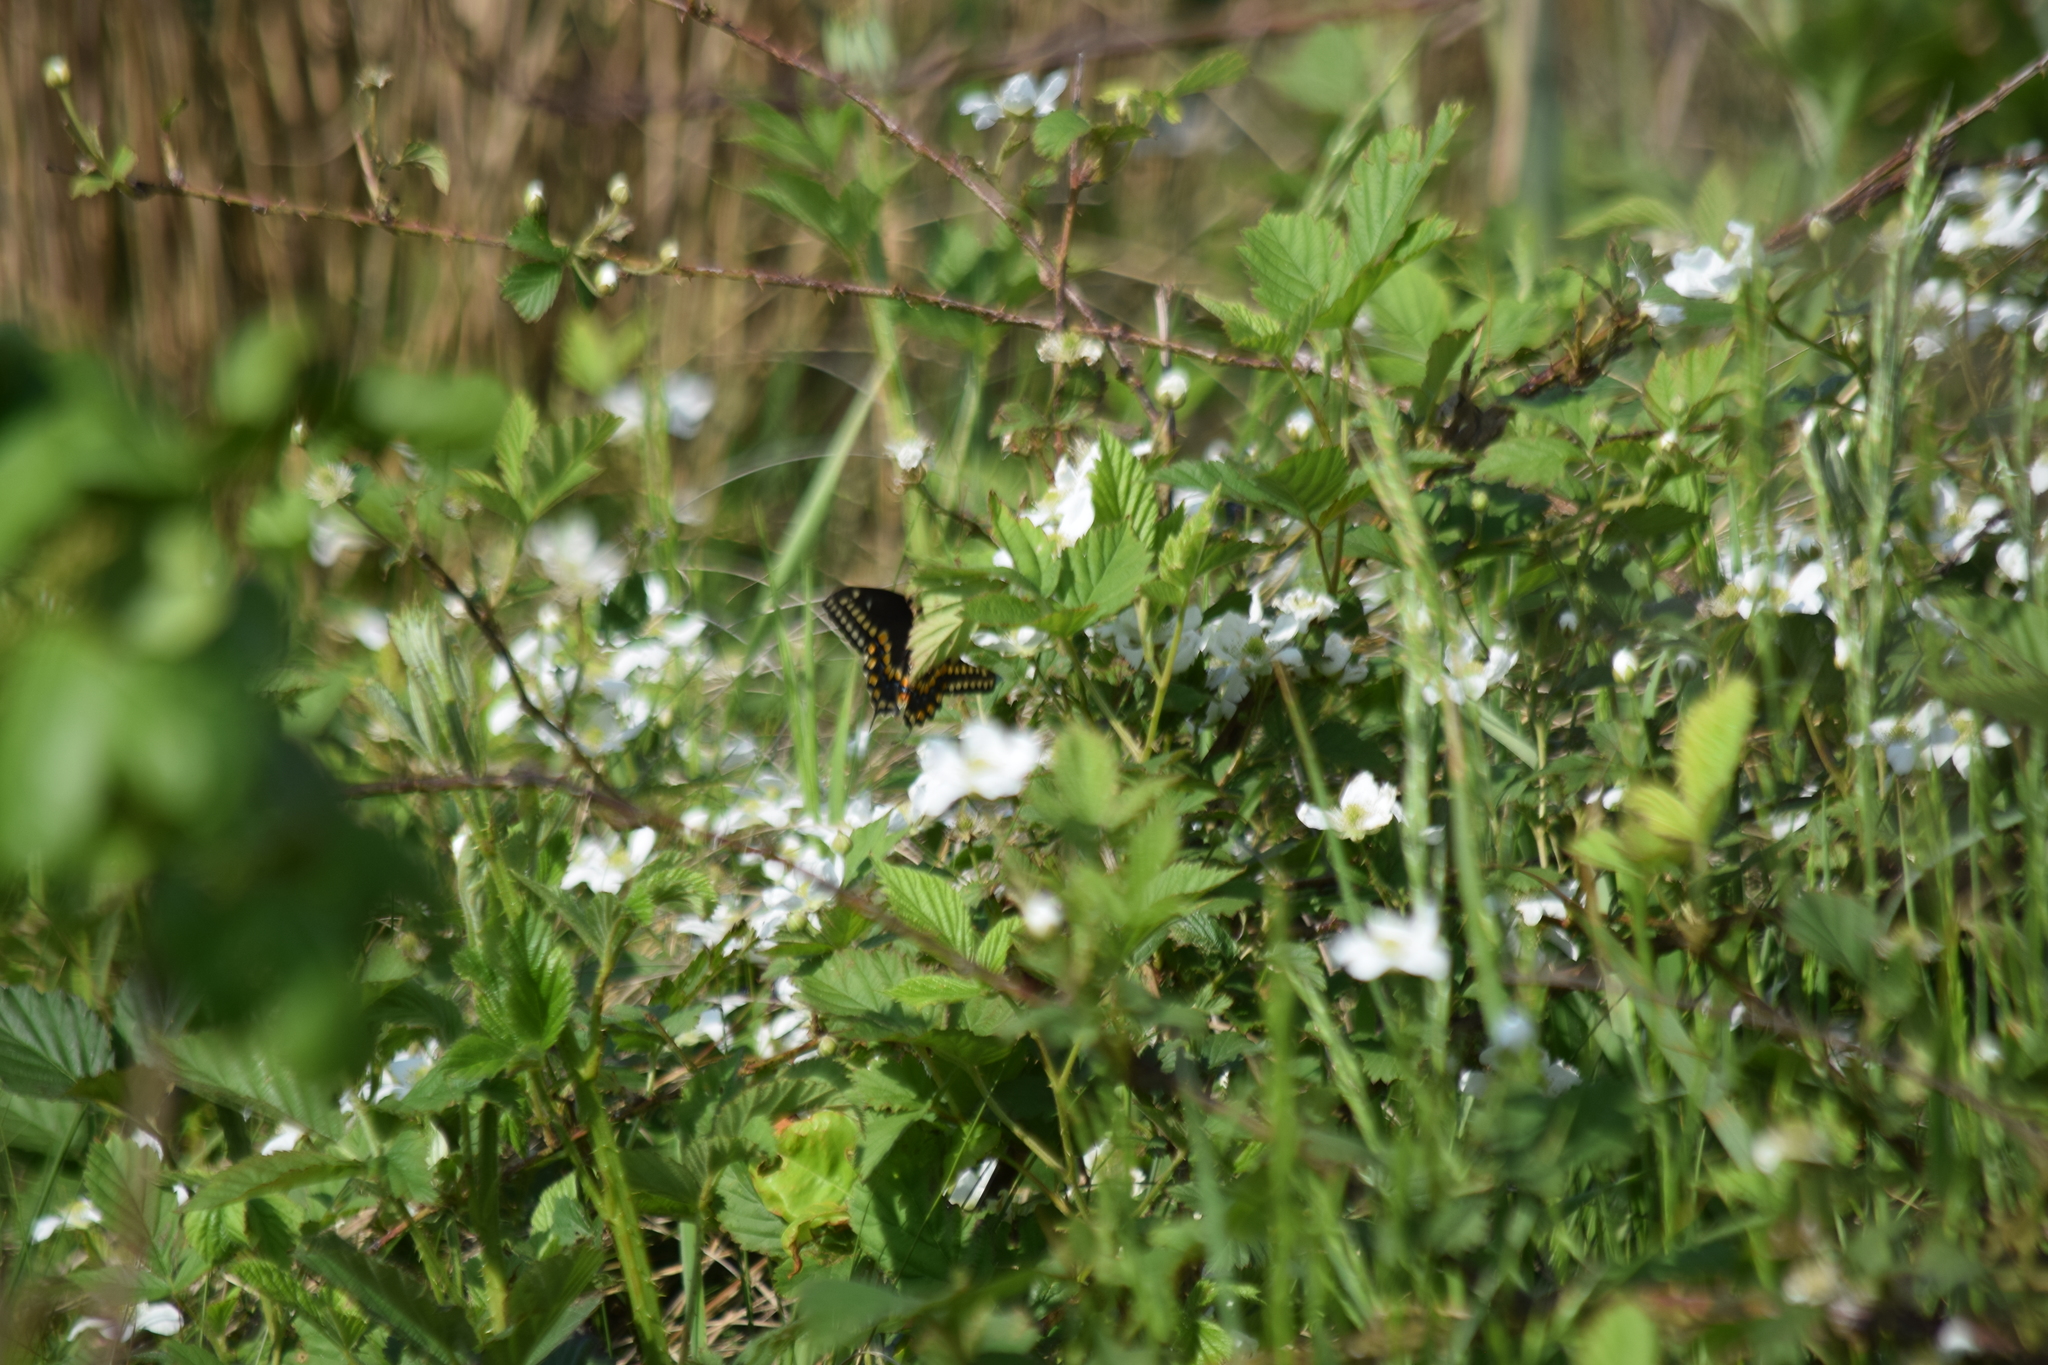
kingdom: Animalia
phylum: Arthropoda
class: Insecta
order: Lepidoptera
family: Papilionidae
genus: Papilio
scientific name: Papilio polyxenes
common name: Black swallowtail
